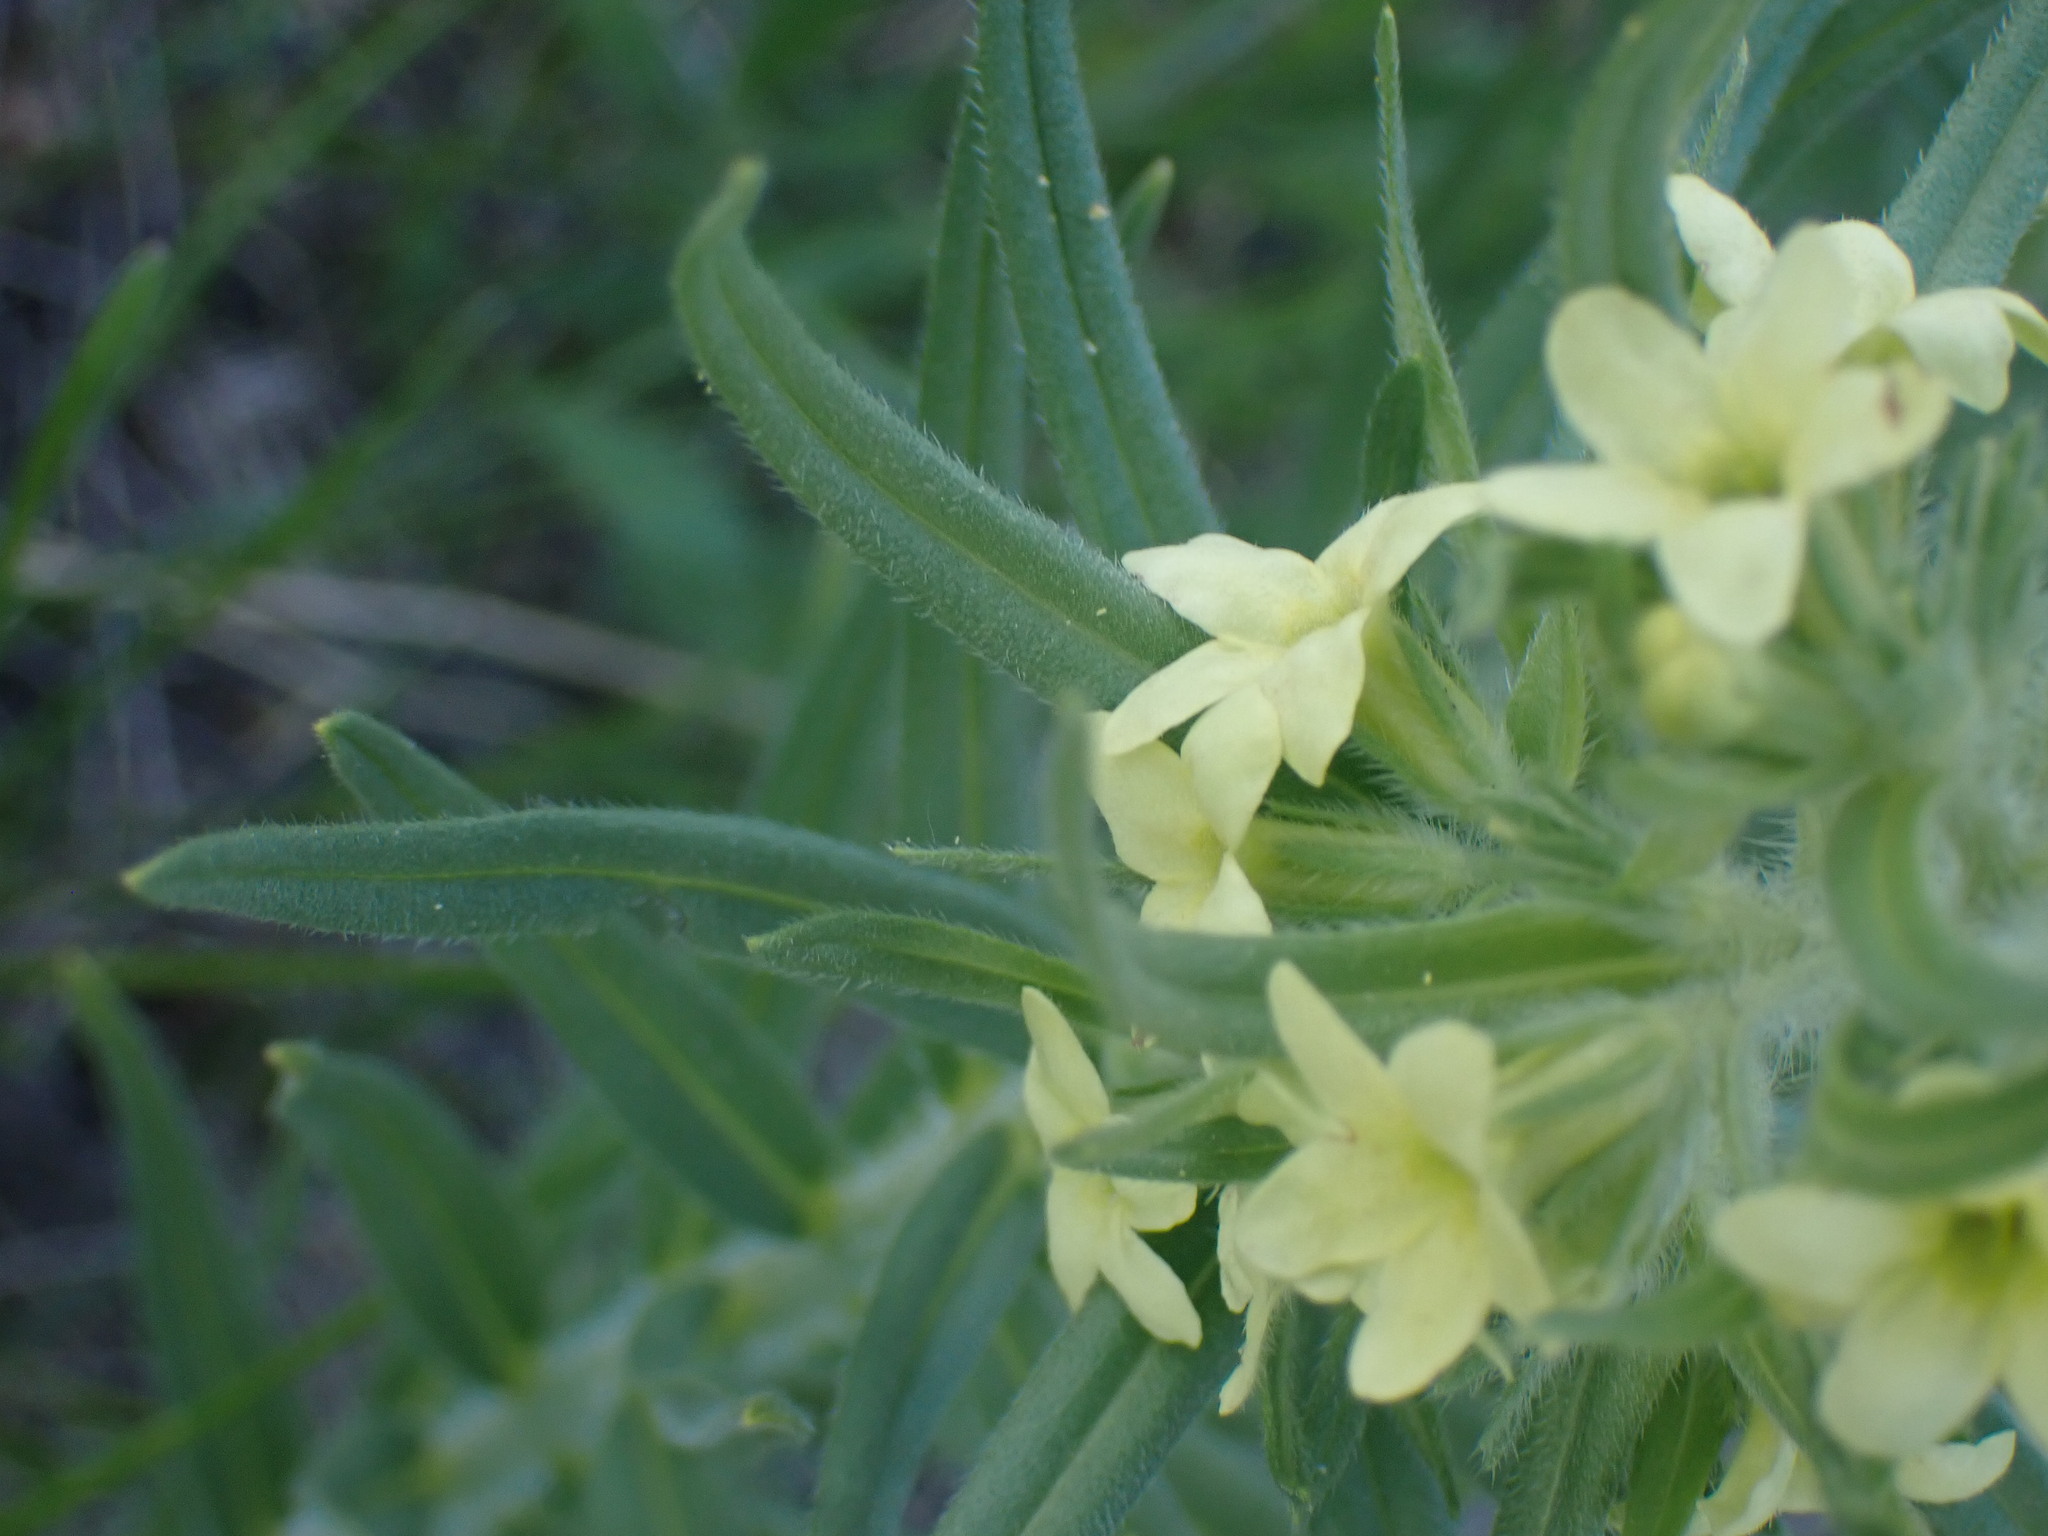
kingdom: Plantae
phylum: Tracheophyta
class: Magnoliopsida
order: Boraginales
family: Boraginaceae
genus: Lithospermum
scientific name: Lithospermum ruderale
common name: Western gromwell
